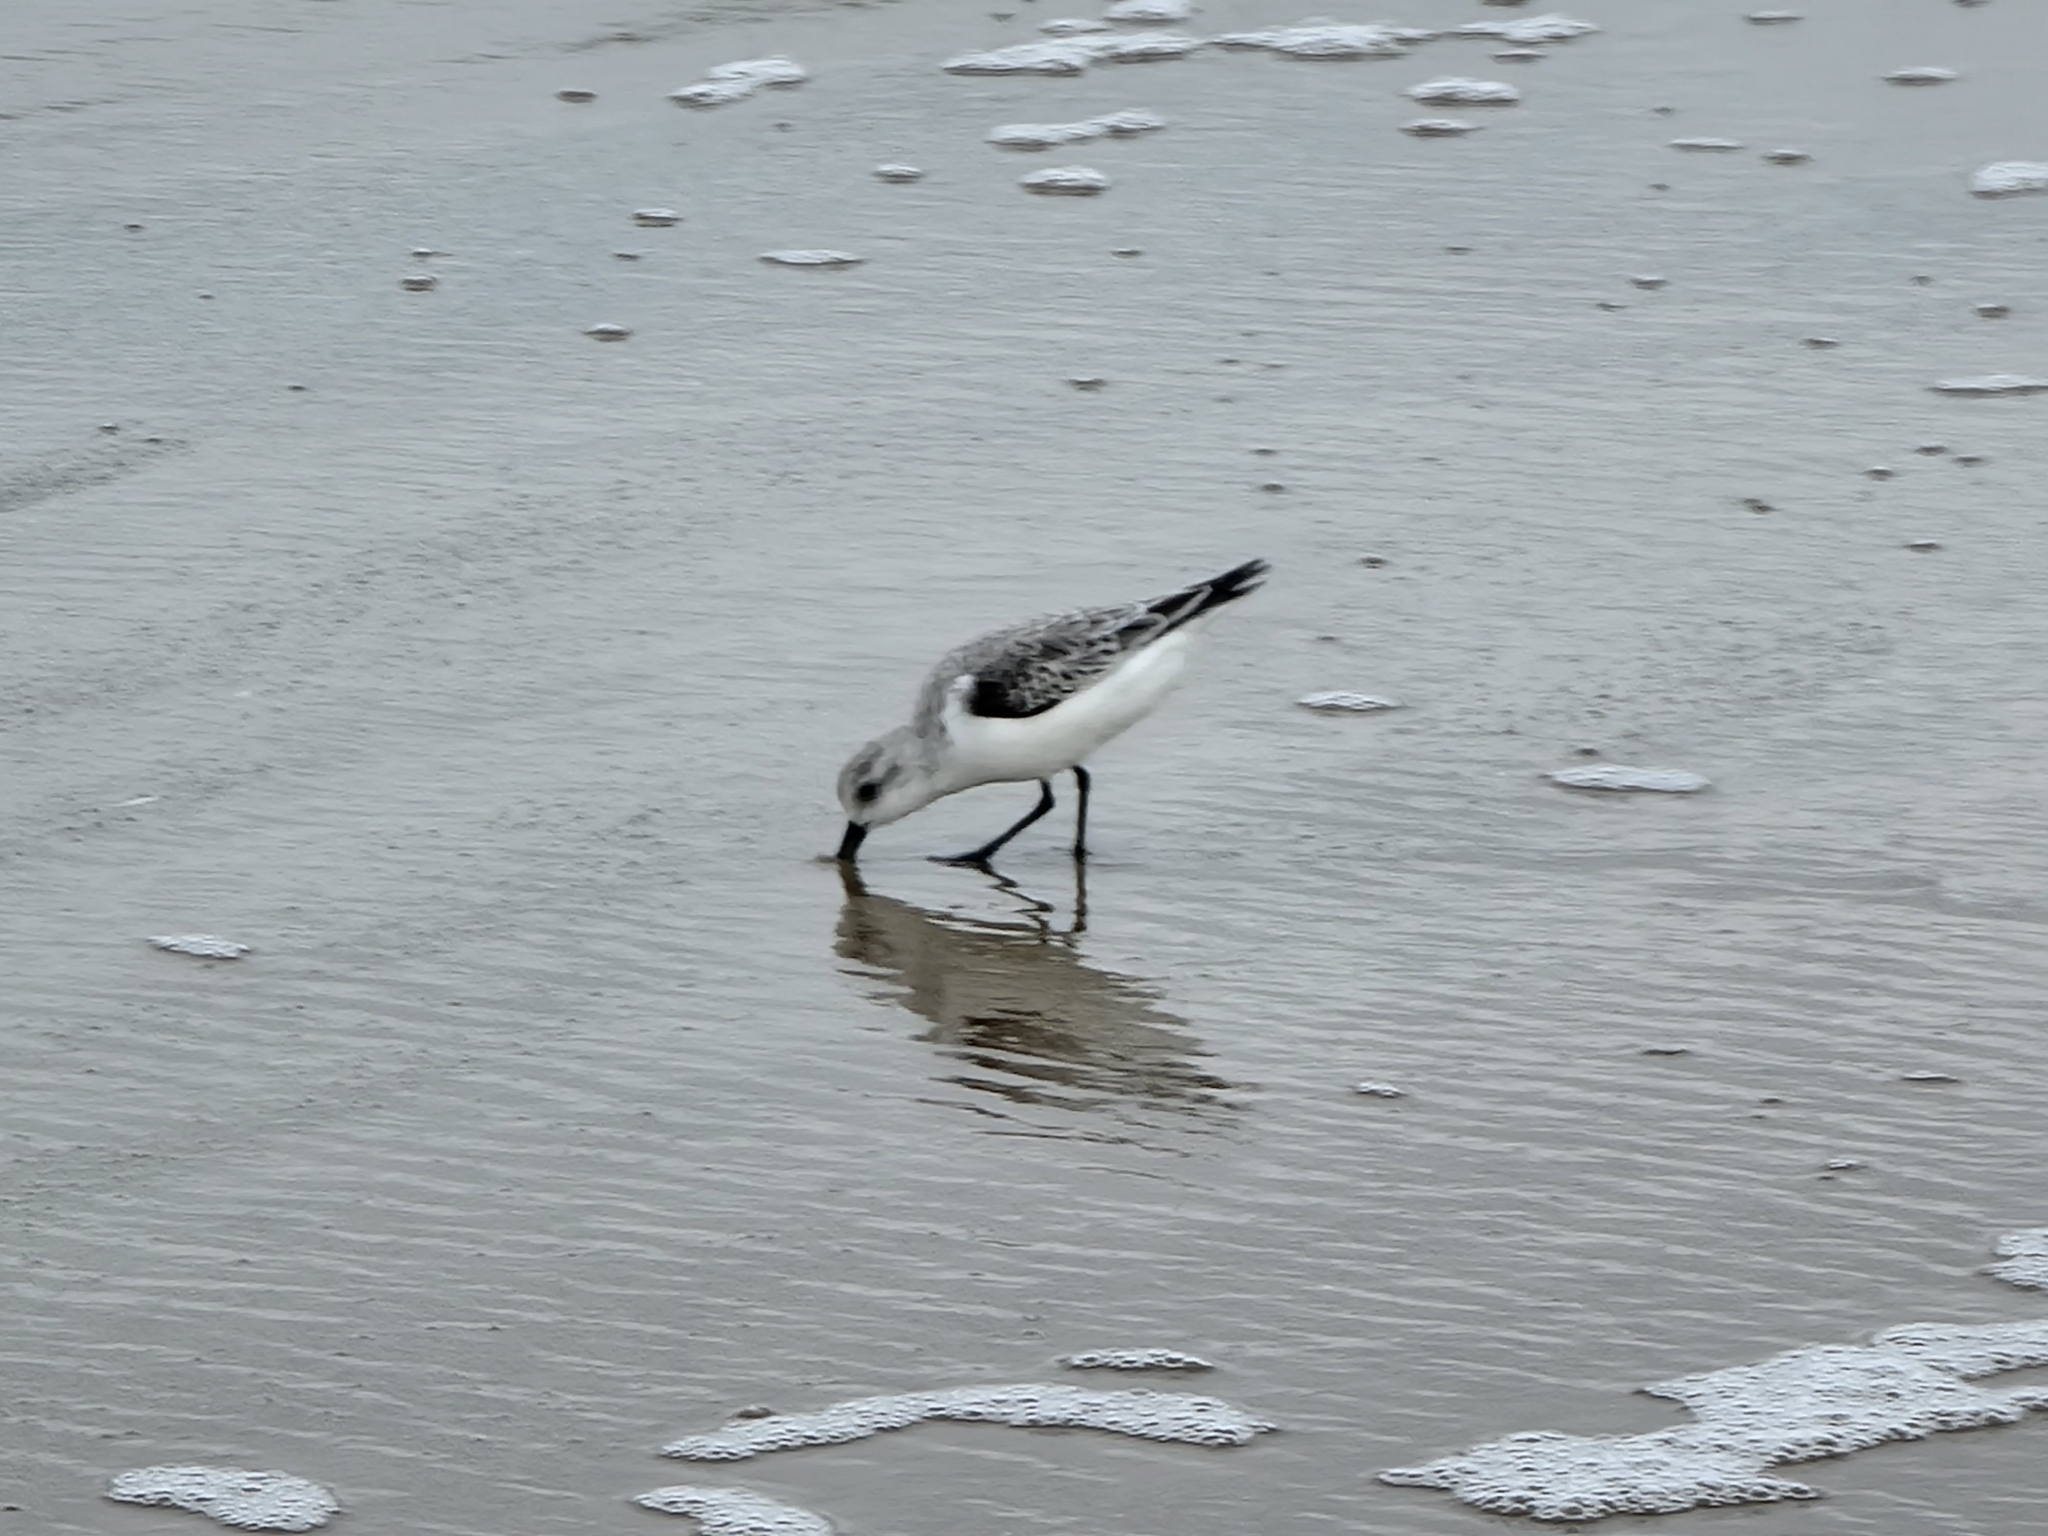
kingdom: Animalia
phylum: Chordata
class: Aves
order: Charadriiformes
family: Scolopacidae
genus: Calidris
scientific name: Calidris alba
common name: Sanderling
